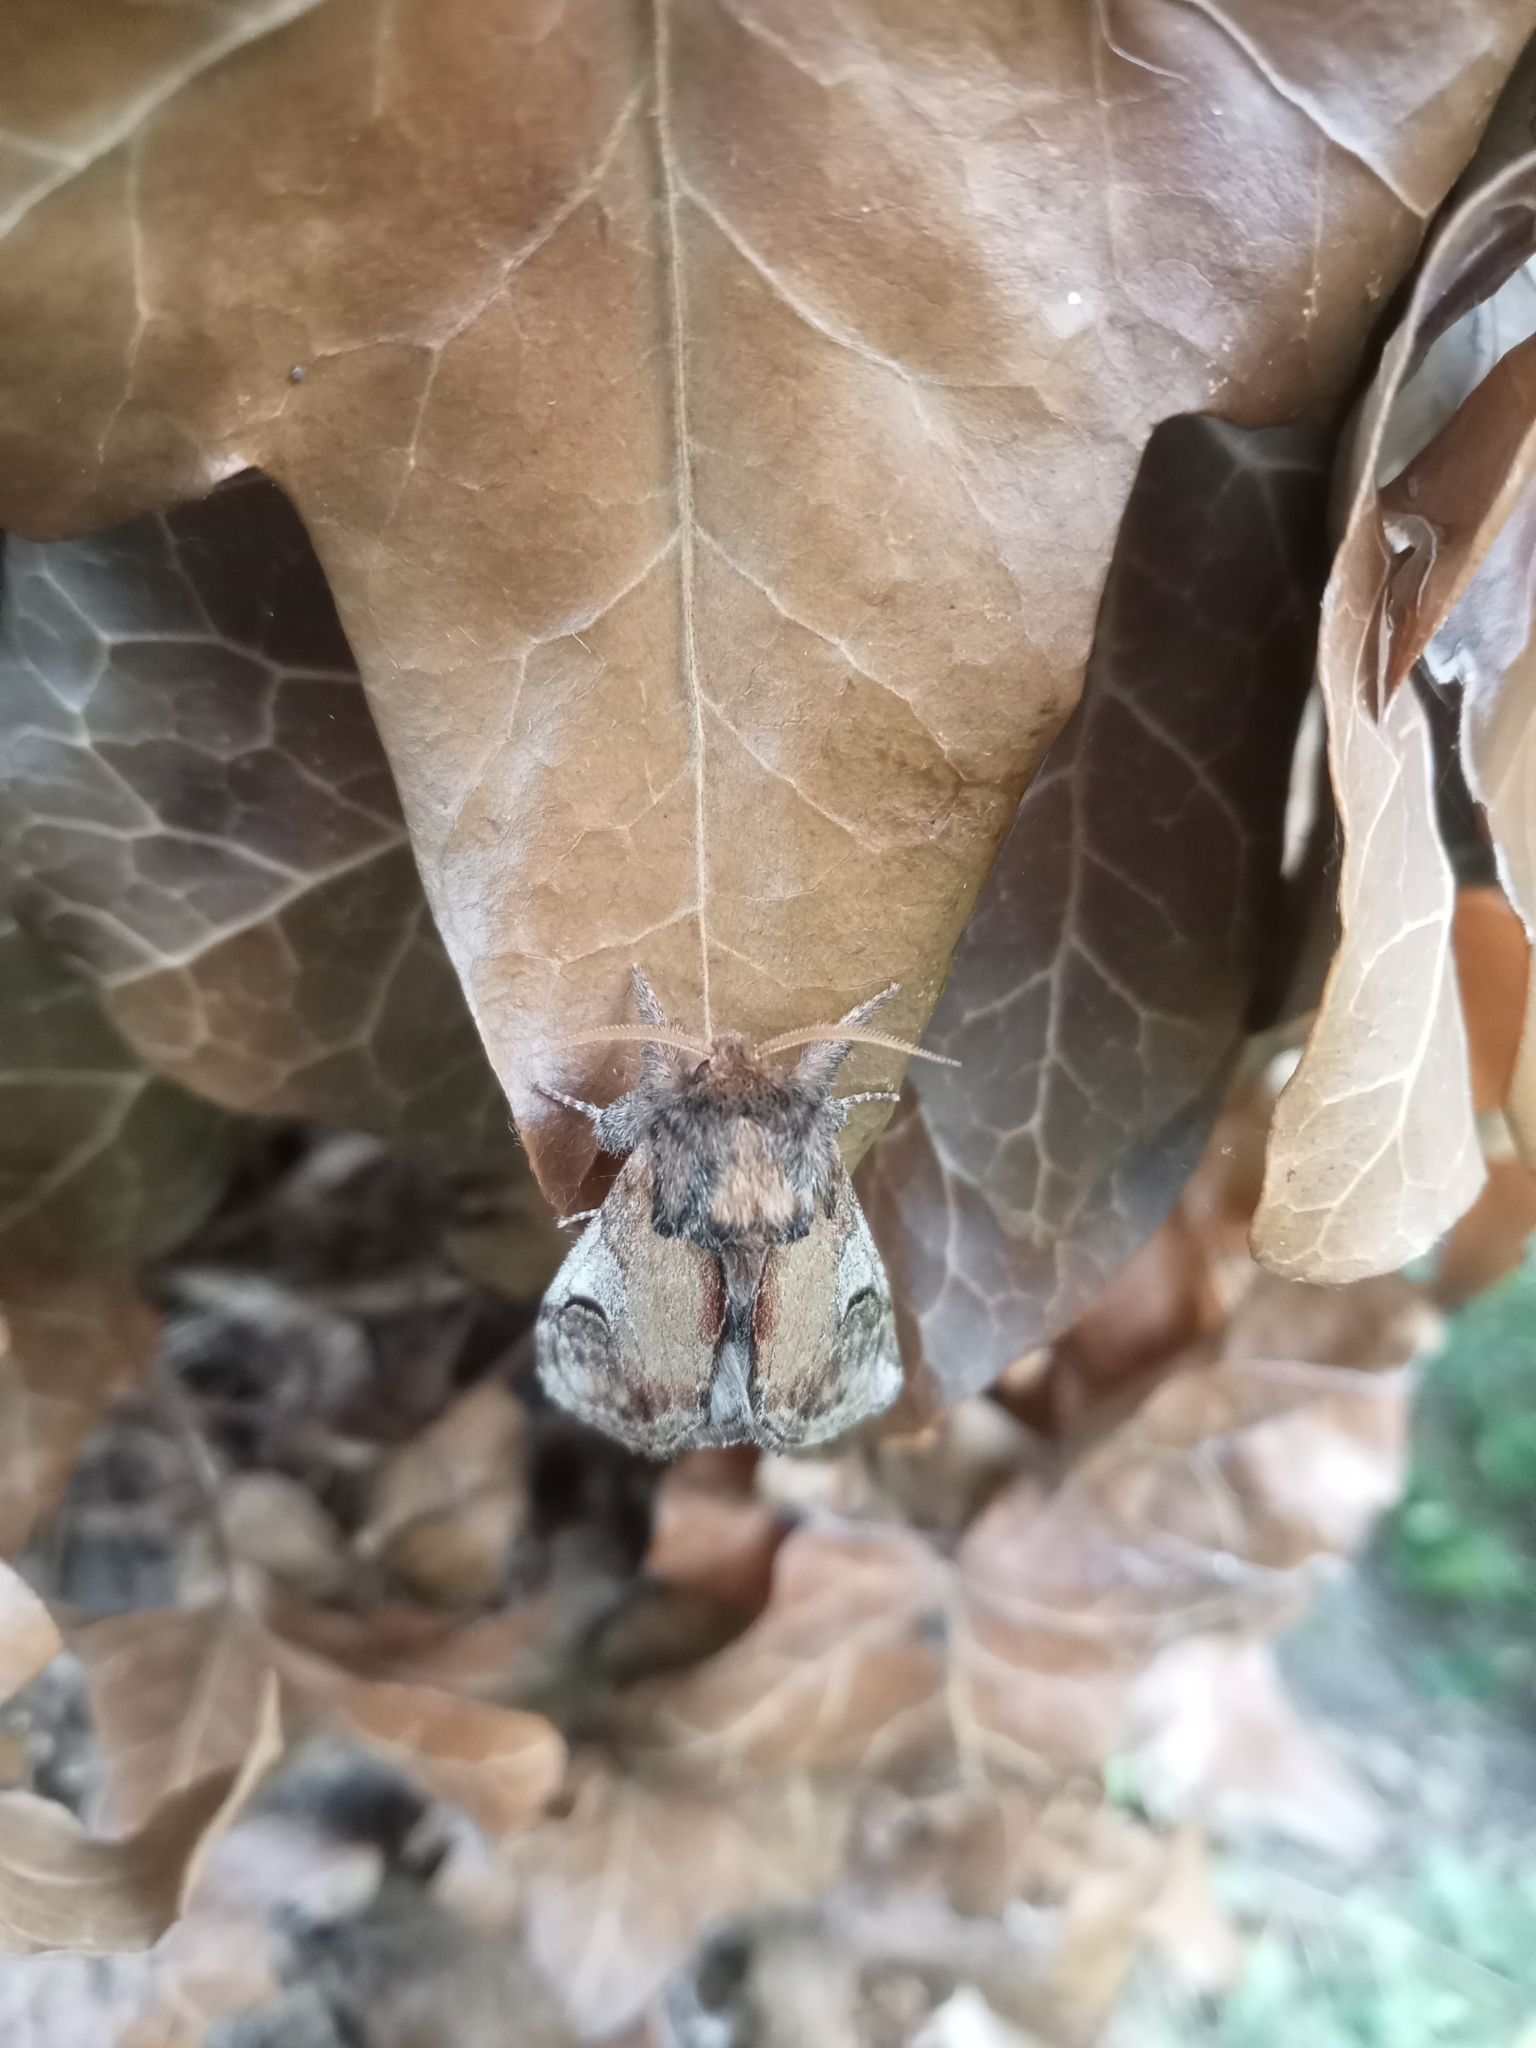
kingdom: Animalia
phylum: Arthropoda
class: Insecta
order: Lepidoptera
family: Notodontidae
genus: Notodonta
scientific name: Notodonta ziczac
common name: Pebble prominent
